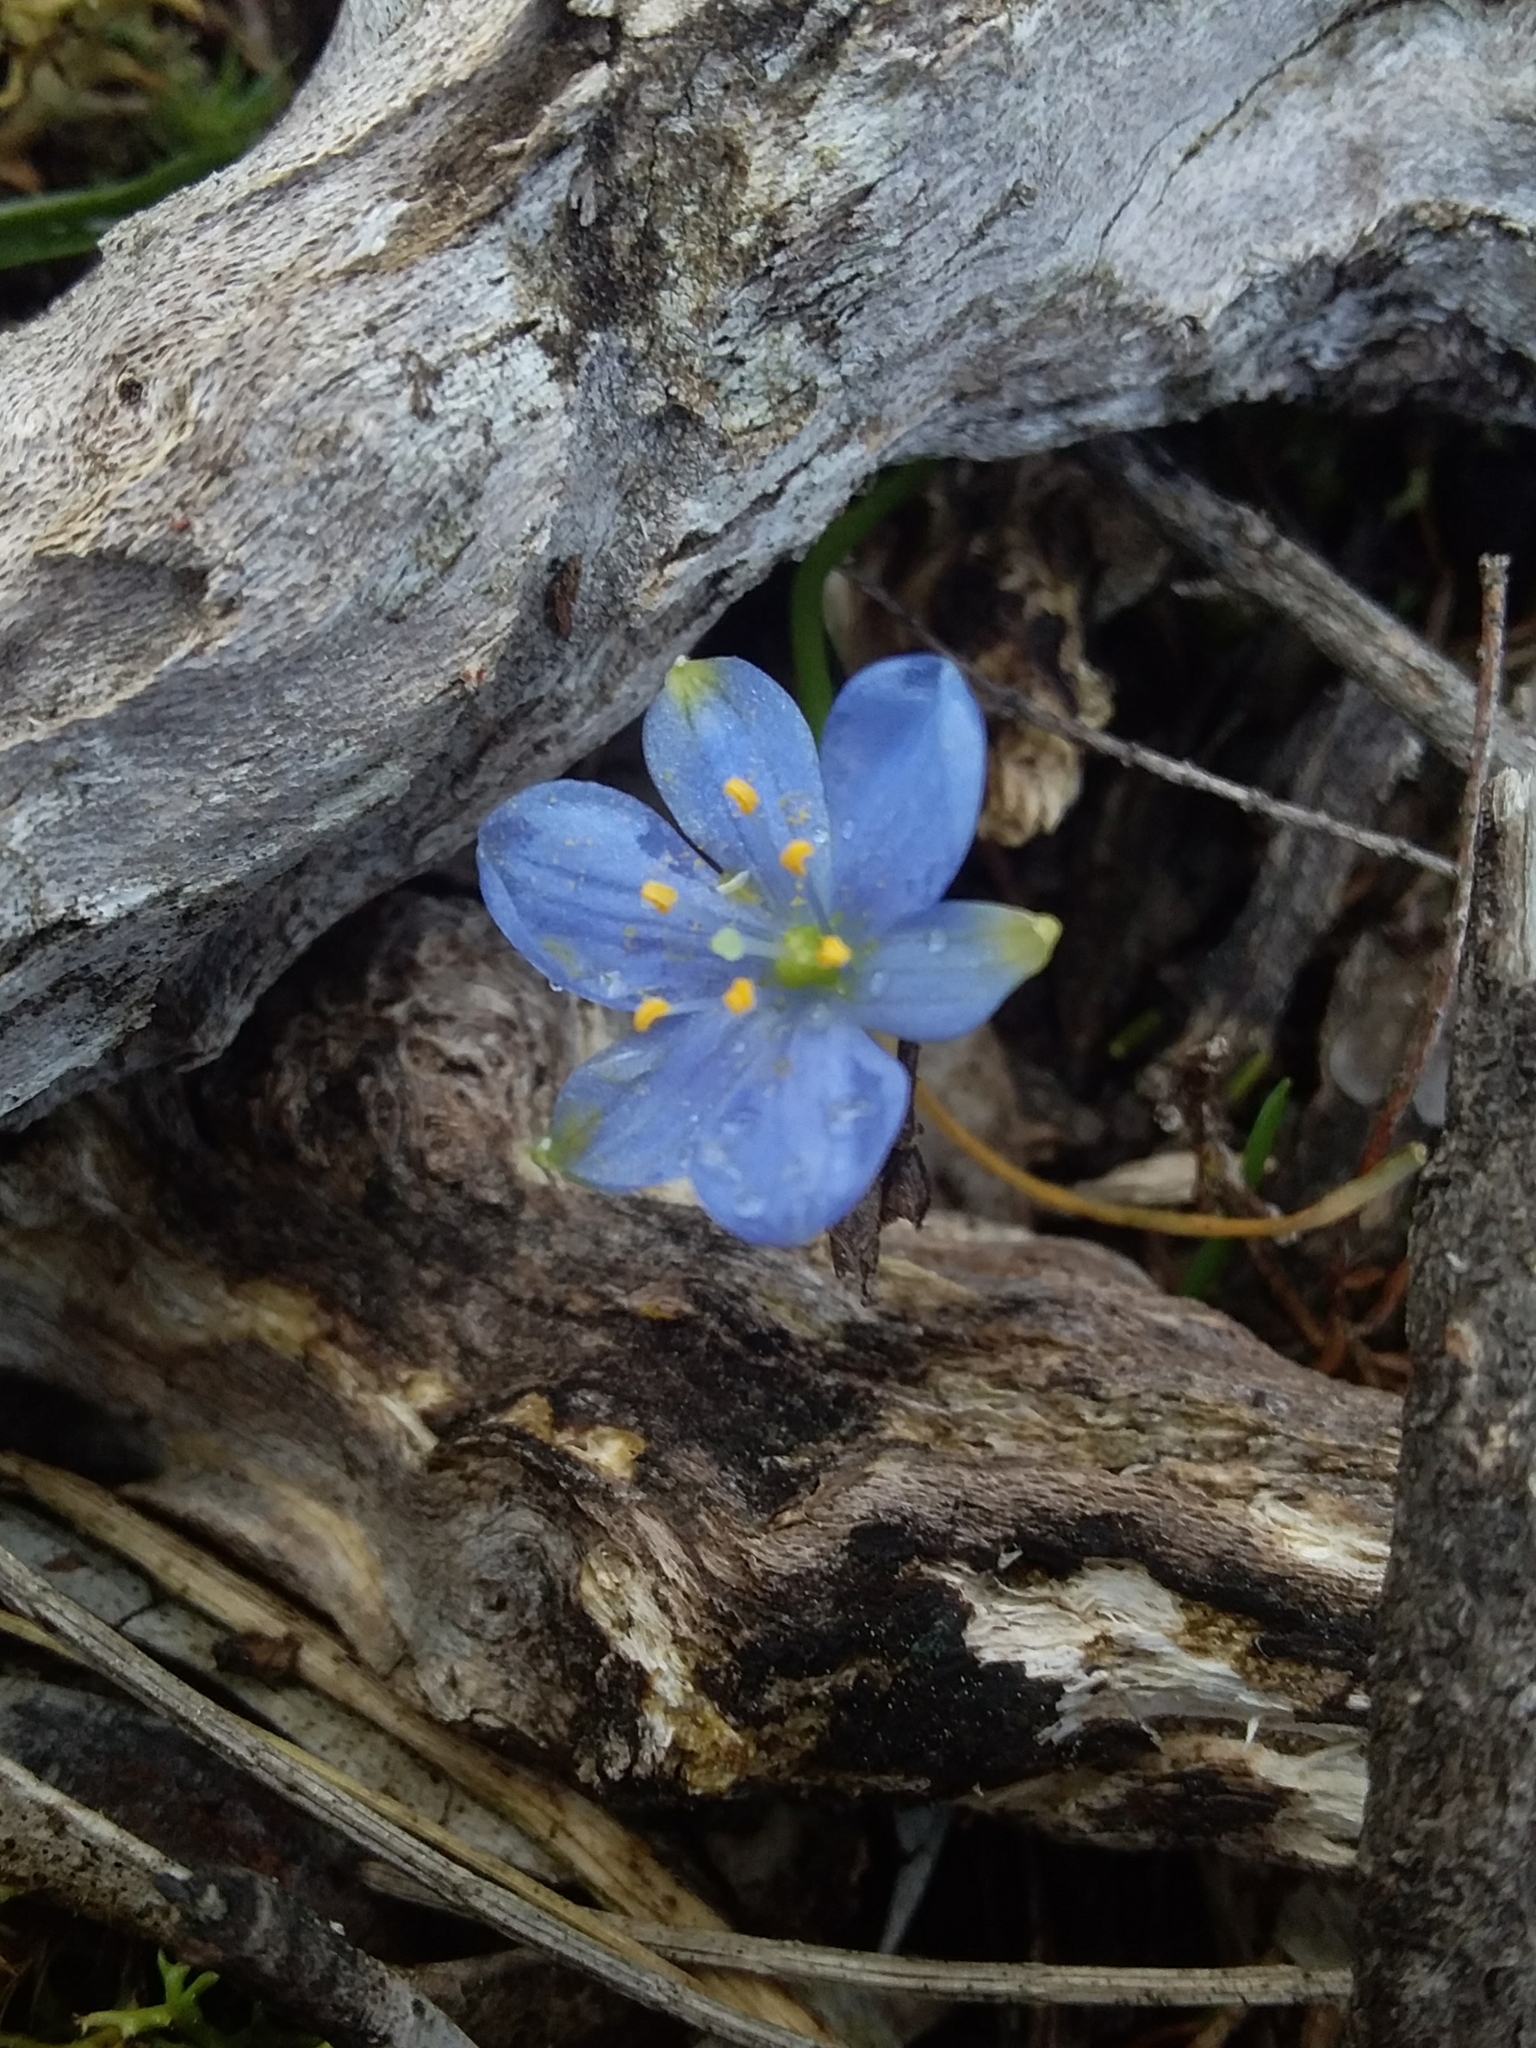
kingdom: Plantae
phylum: Tracheophyta
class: Liliopsida
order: Asparagales
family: Asphodelaceae
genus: Chamaescilla
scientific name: Chamaescilla corymbosa
